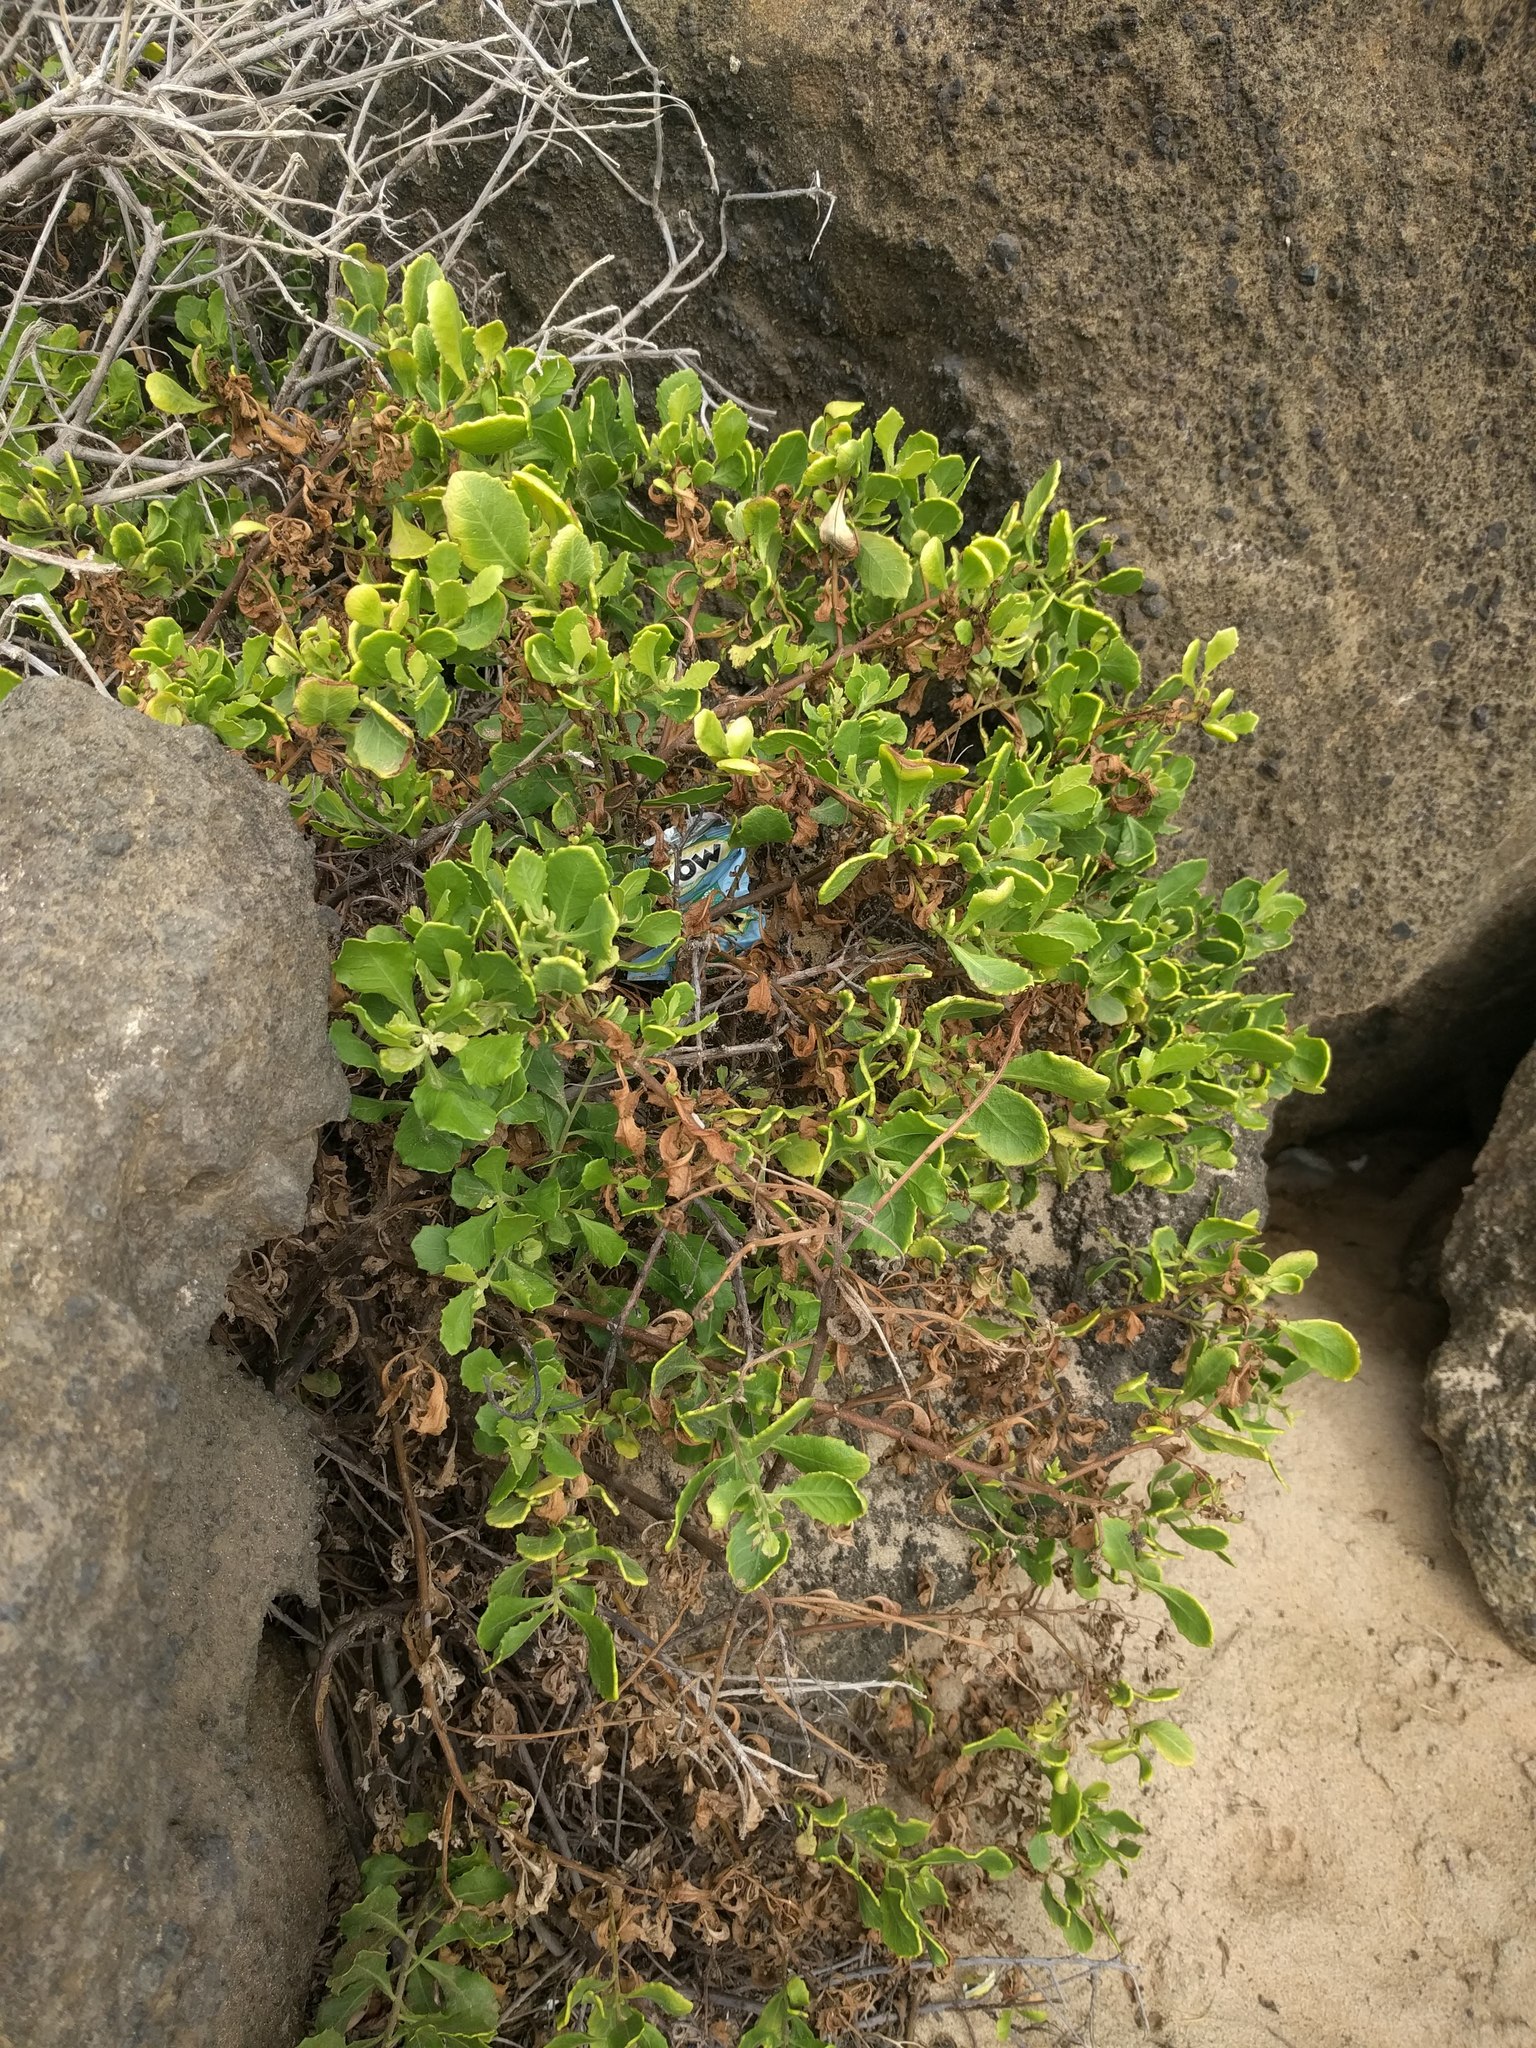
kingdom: Plantae
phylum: Tracheophyta
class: Magnoliopsida
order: Asterales
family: Asteraceae
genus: Pluchea
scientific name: Pluchea indica
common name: Indian fleabane
